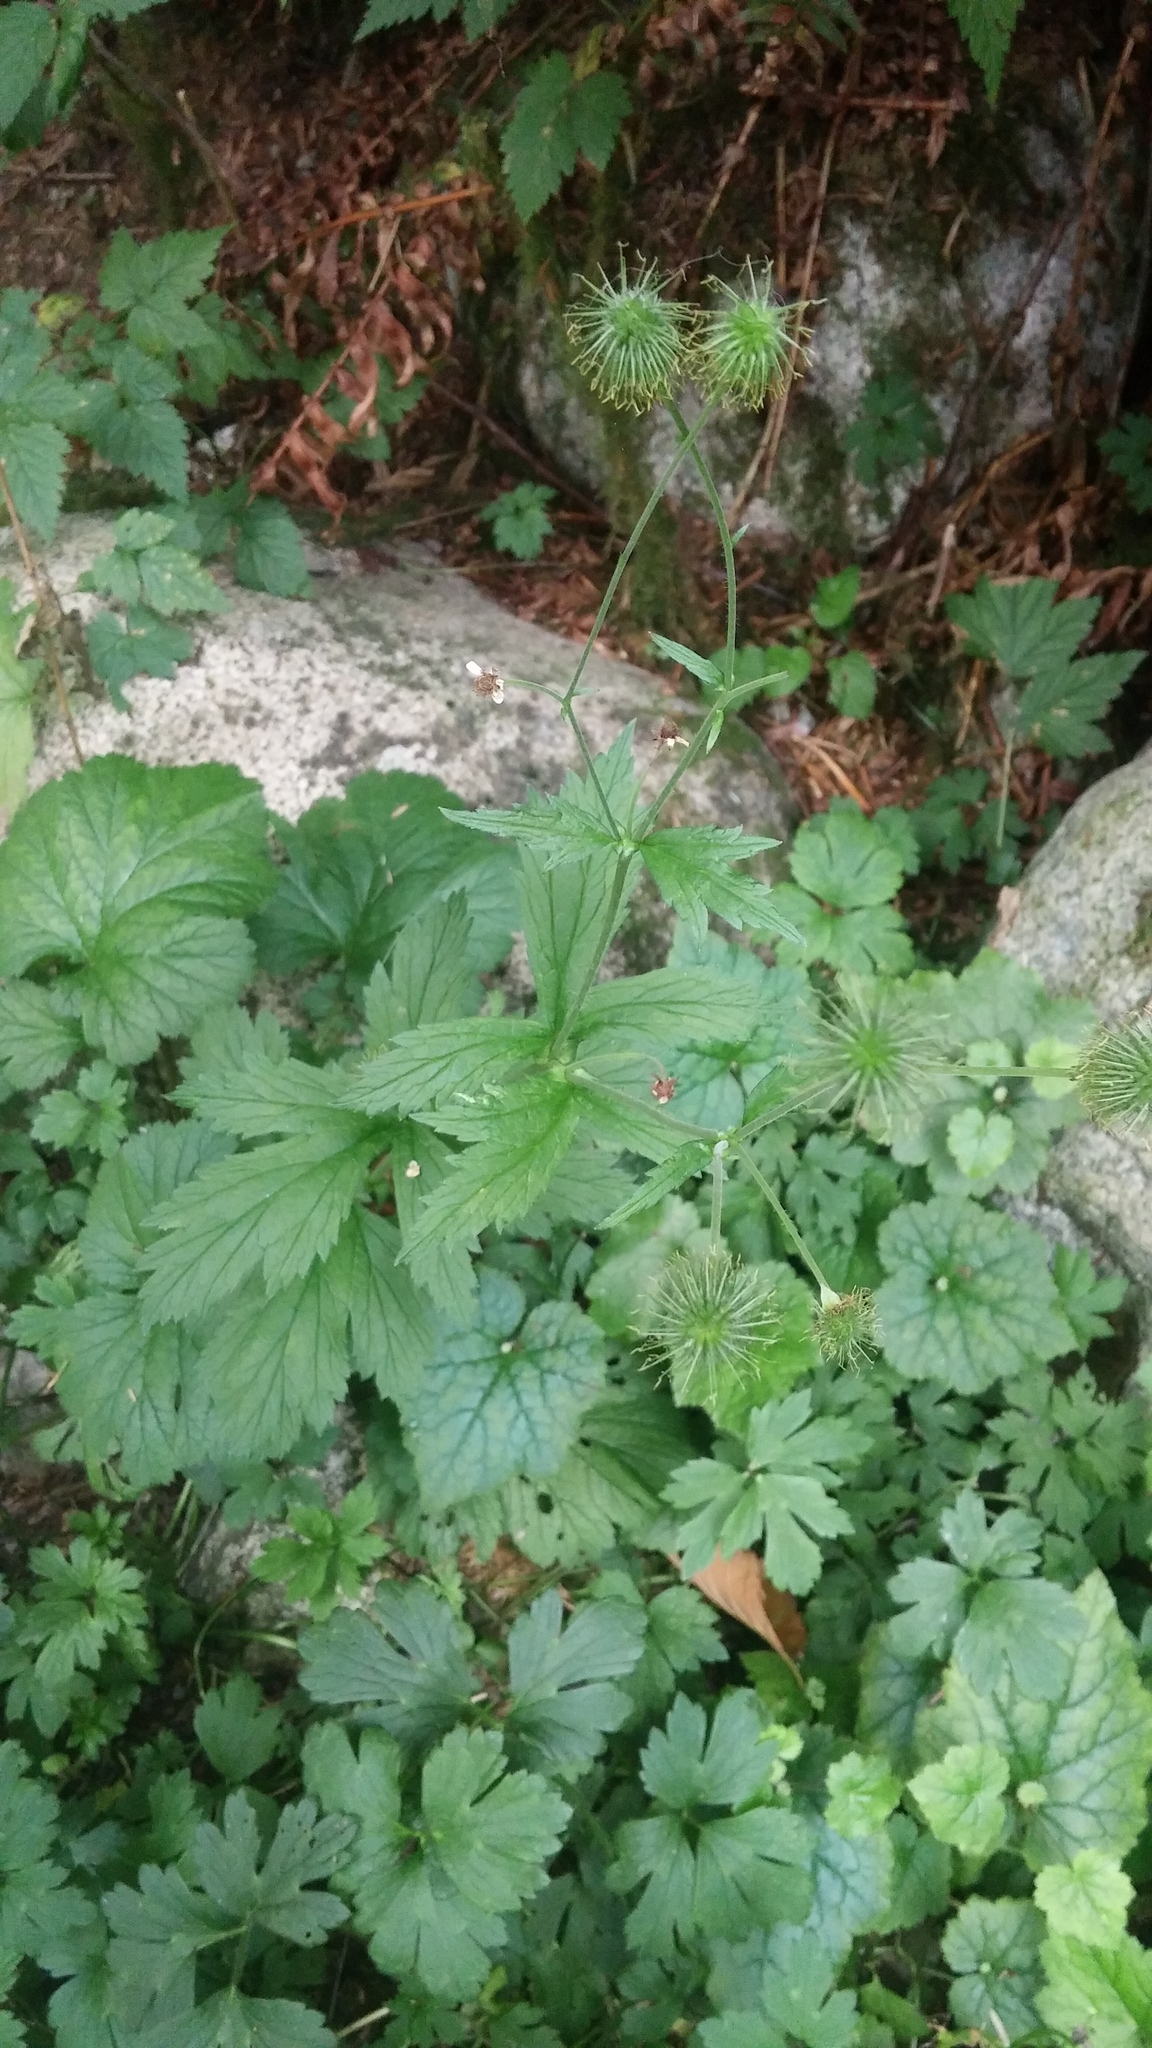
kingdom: Plantae
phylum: Tracheophyta
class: Magnoliopsida
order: Rosales
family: Rosaceae
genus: Geum
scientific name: Geum macrophyllum
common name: Large-leaved avens
